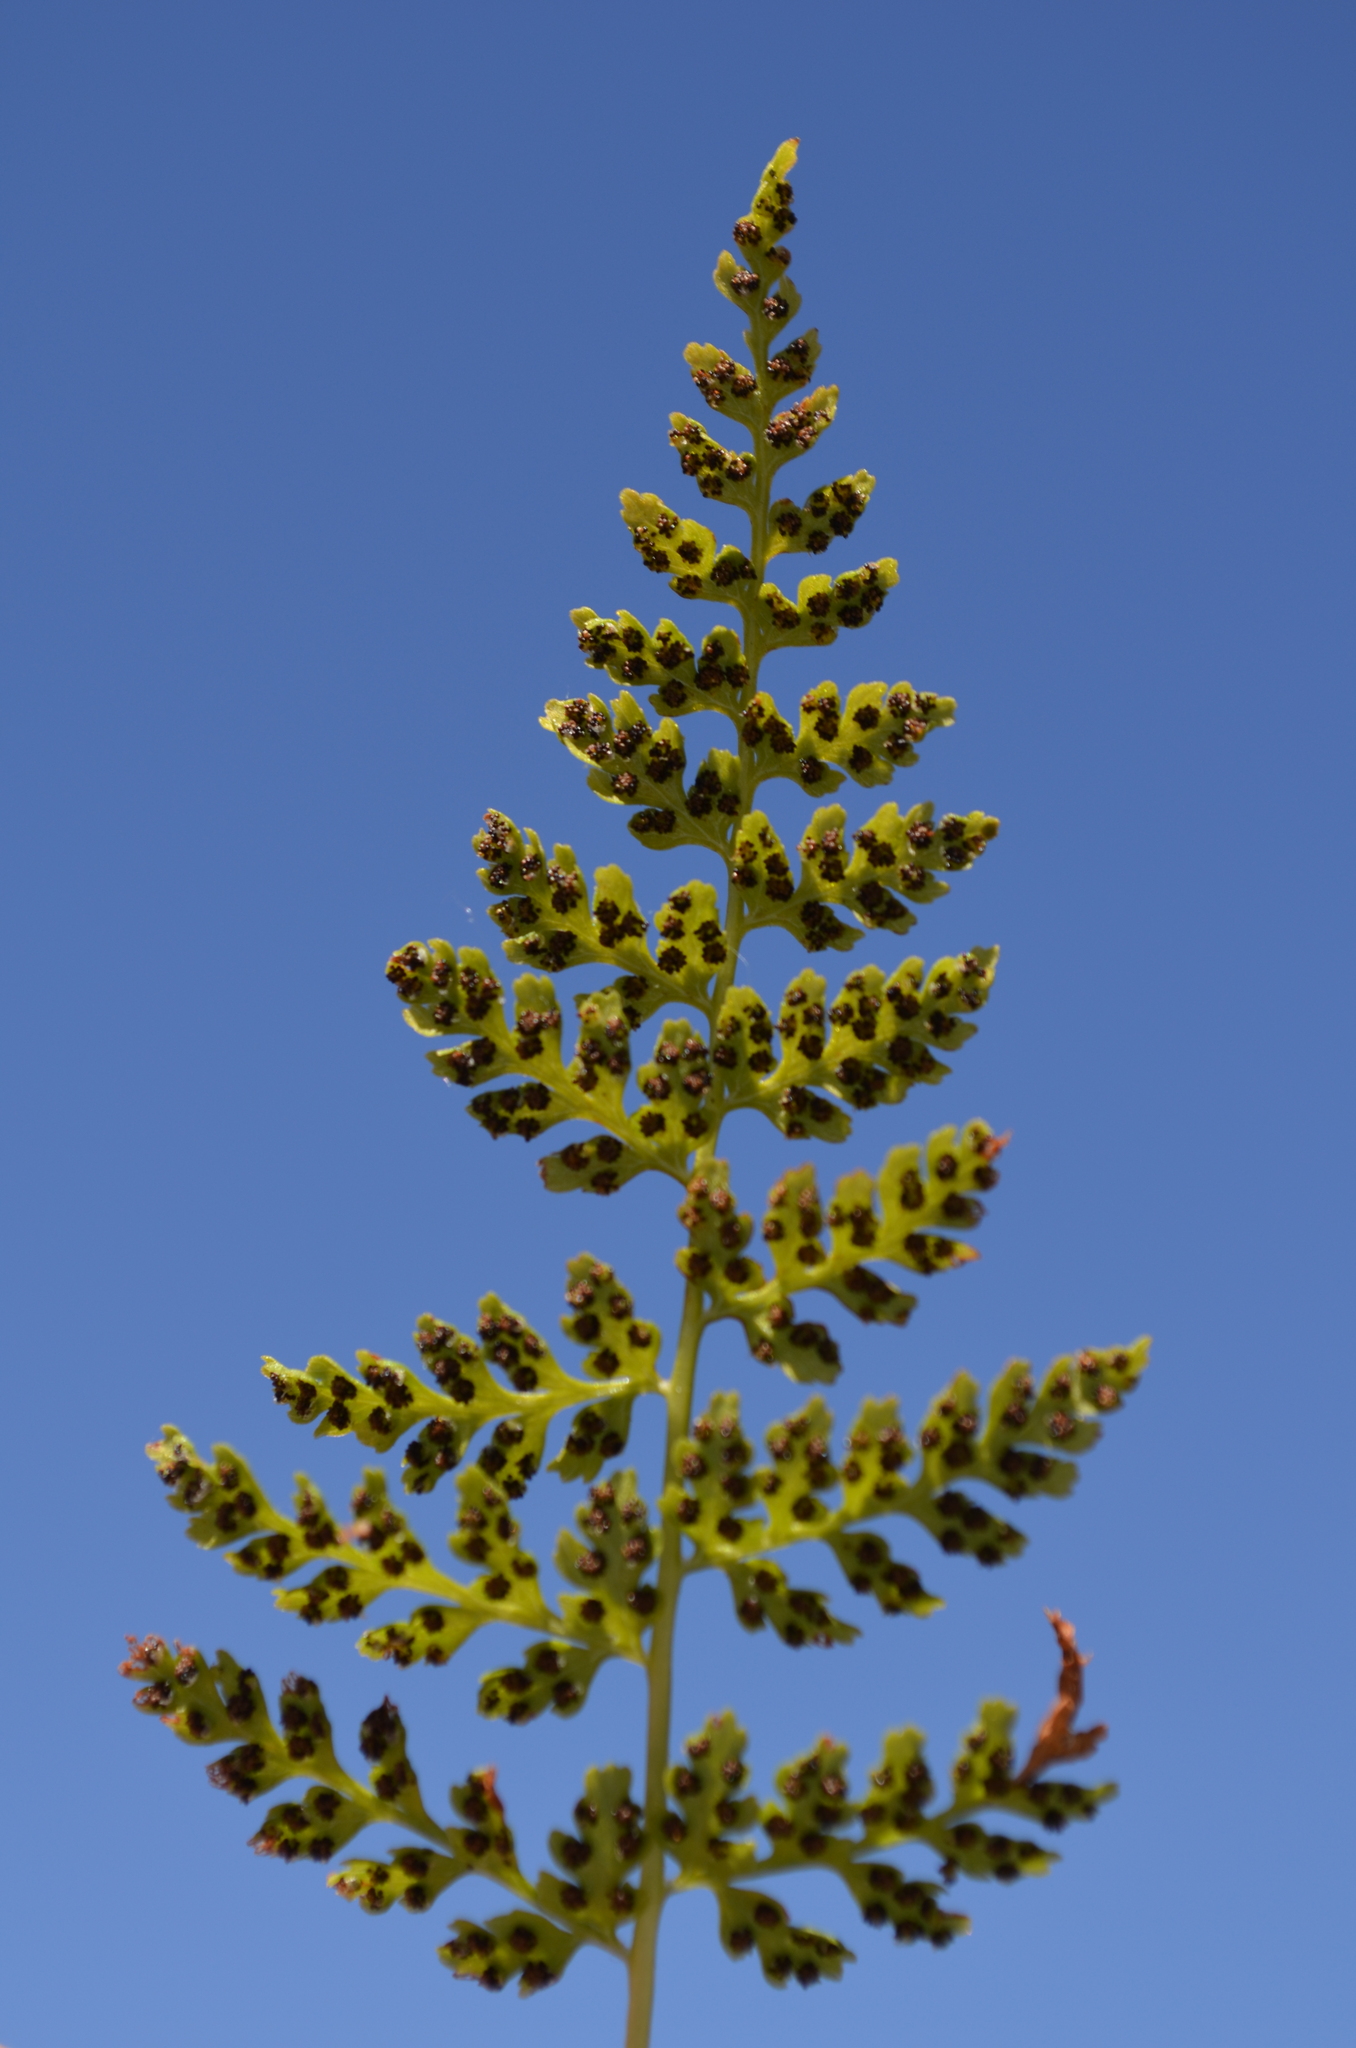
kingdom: Plantae
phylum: Tracheophyta
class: Polypodiopsida
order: Polypodiales
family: Cystopteridaceae
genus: Cystopteris
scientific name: Cystopteris fragilis
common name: Brittle bladder fern
